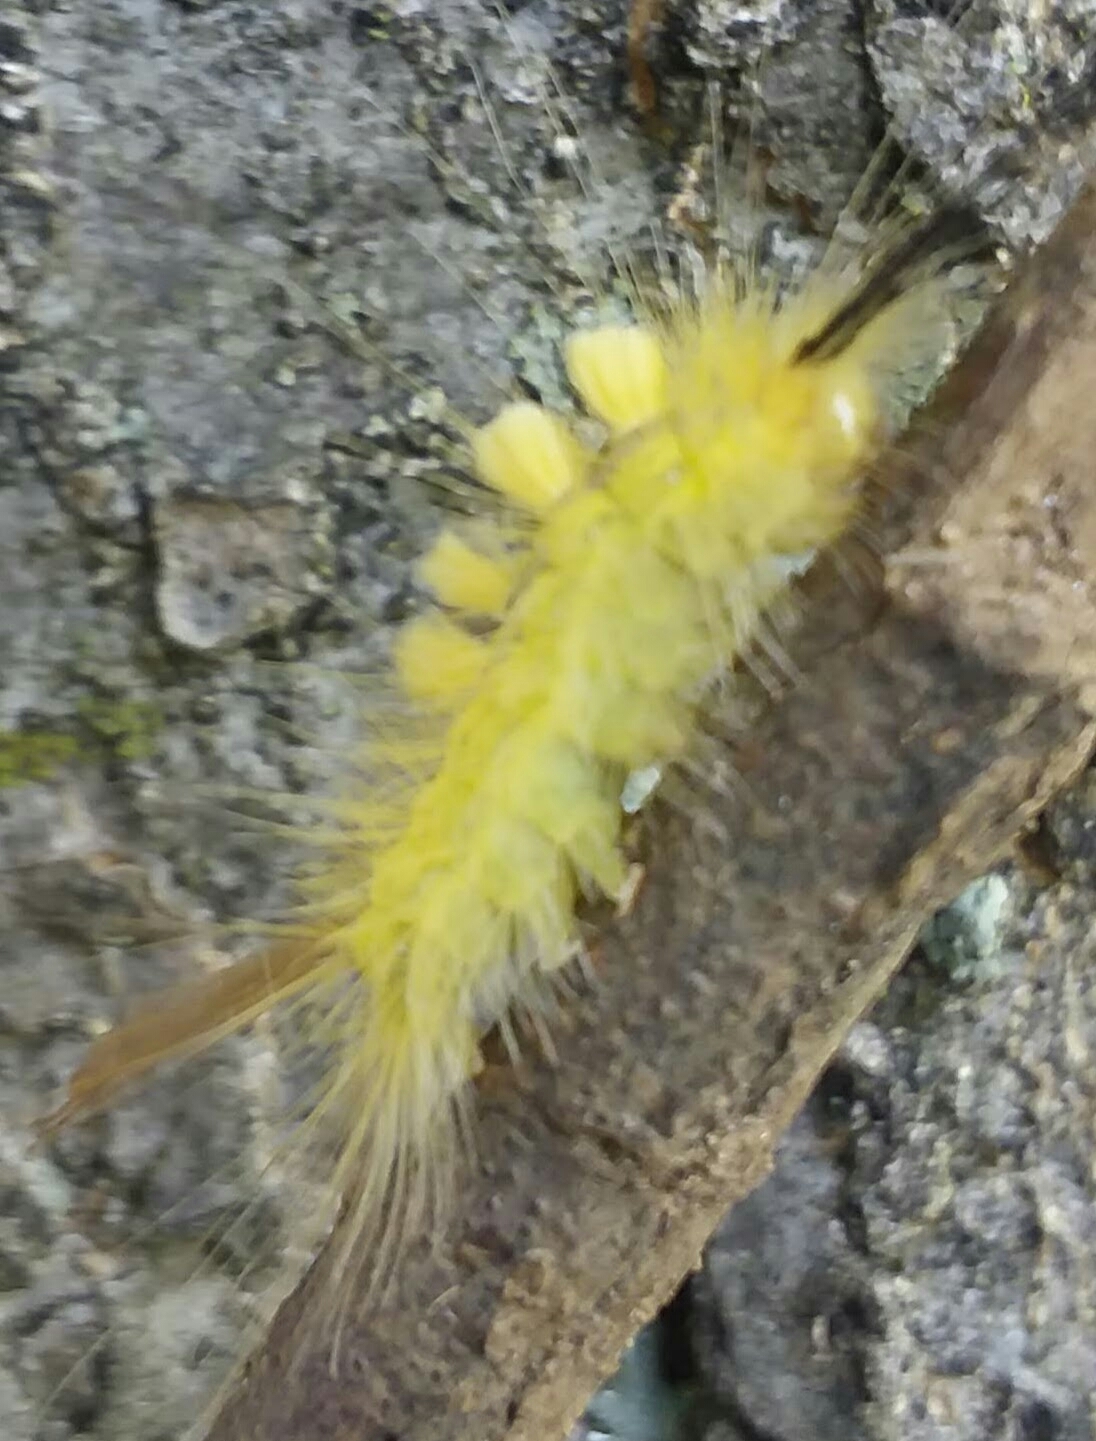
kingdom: Animalia
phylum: Arthropoda
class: Insecta
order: Lepidoptera
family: Erebidae
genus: Orgyia
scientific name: Orgyia definita
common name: Definite tussock moth
